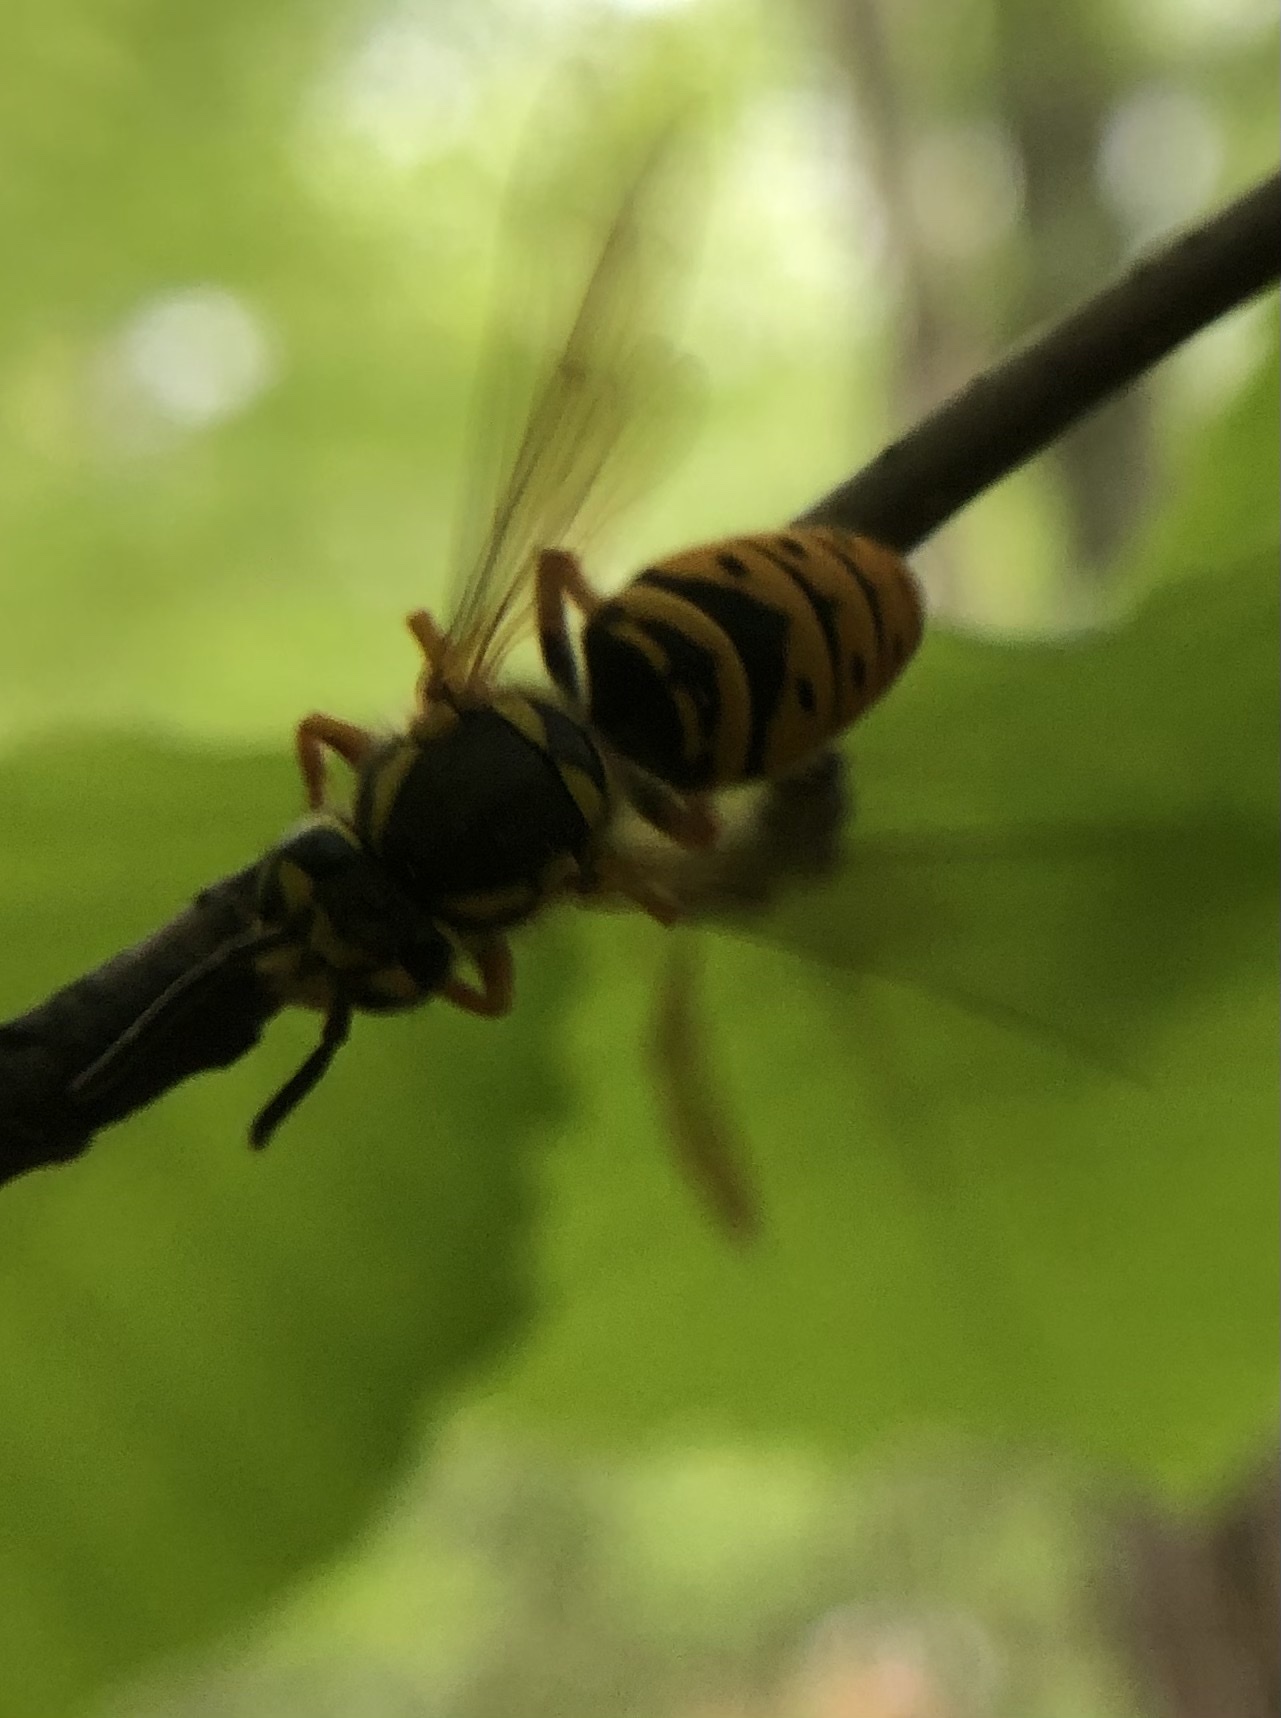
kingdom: Animalia
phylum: Arthropoda
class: Insecta
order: Hymenoptera
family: Vespidae
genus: Vespula
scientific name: Vespula maculifrons
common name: Eastern yellowjacket
